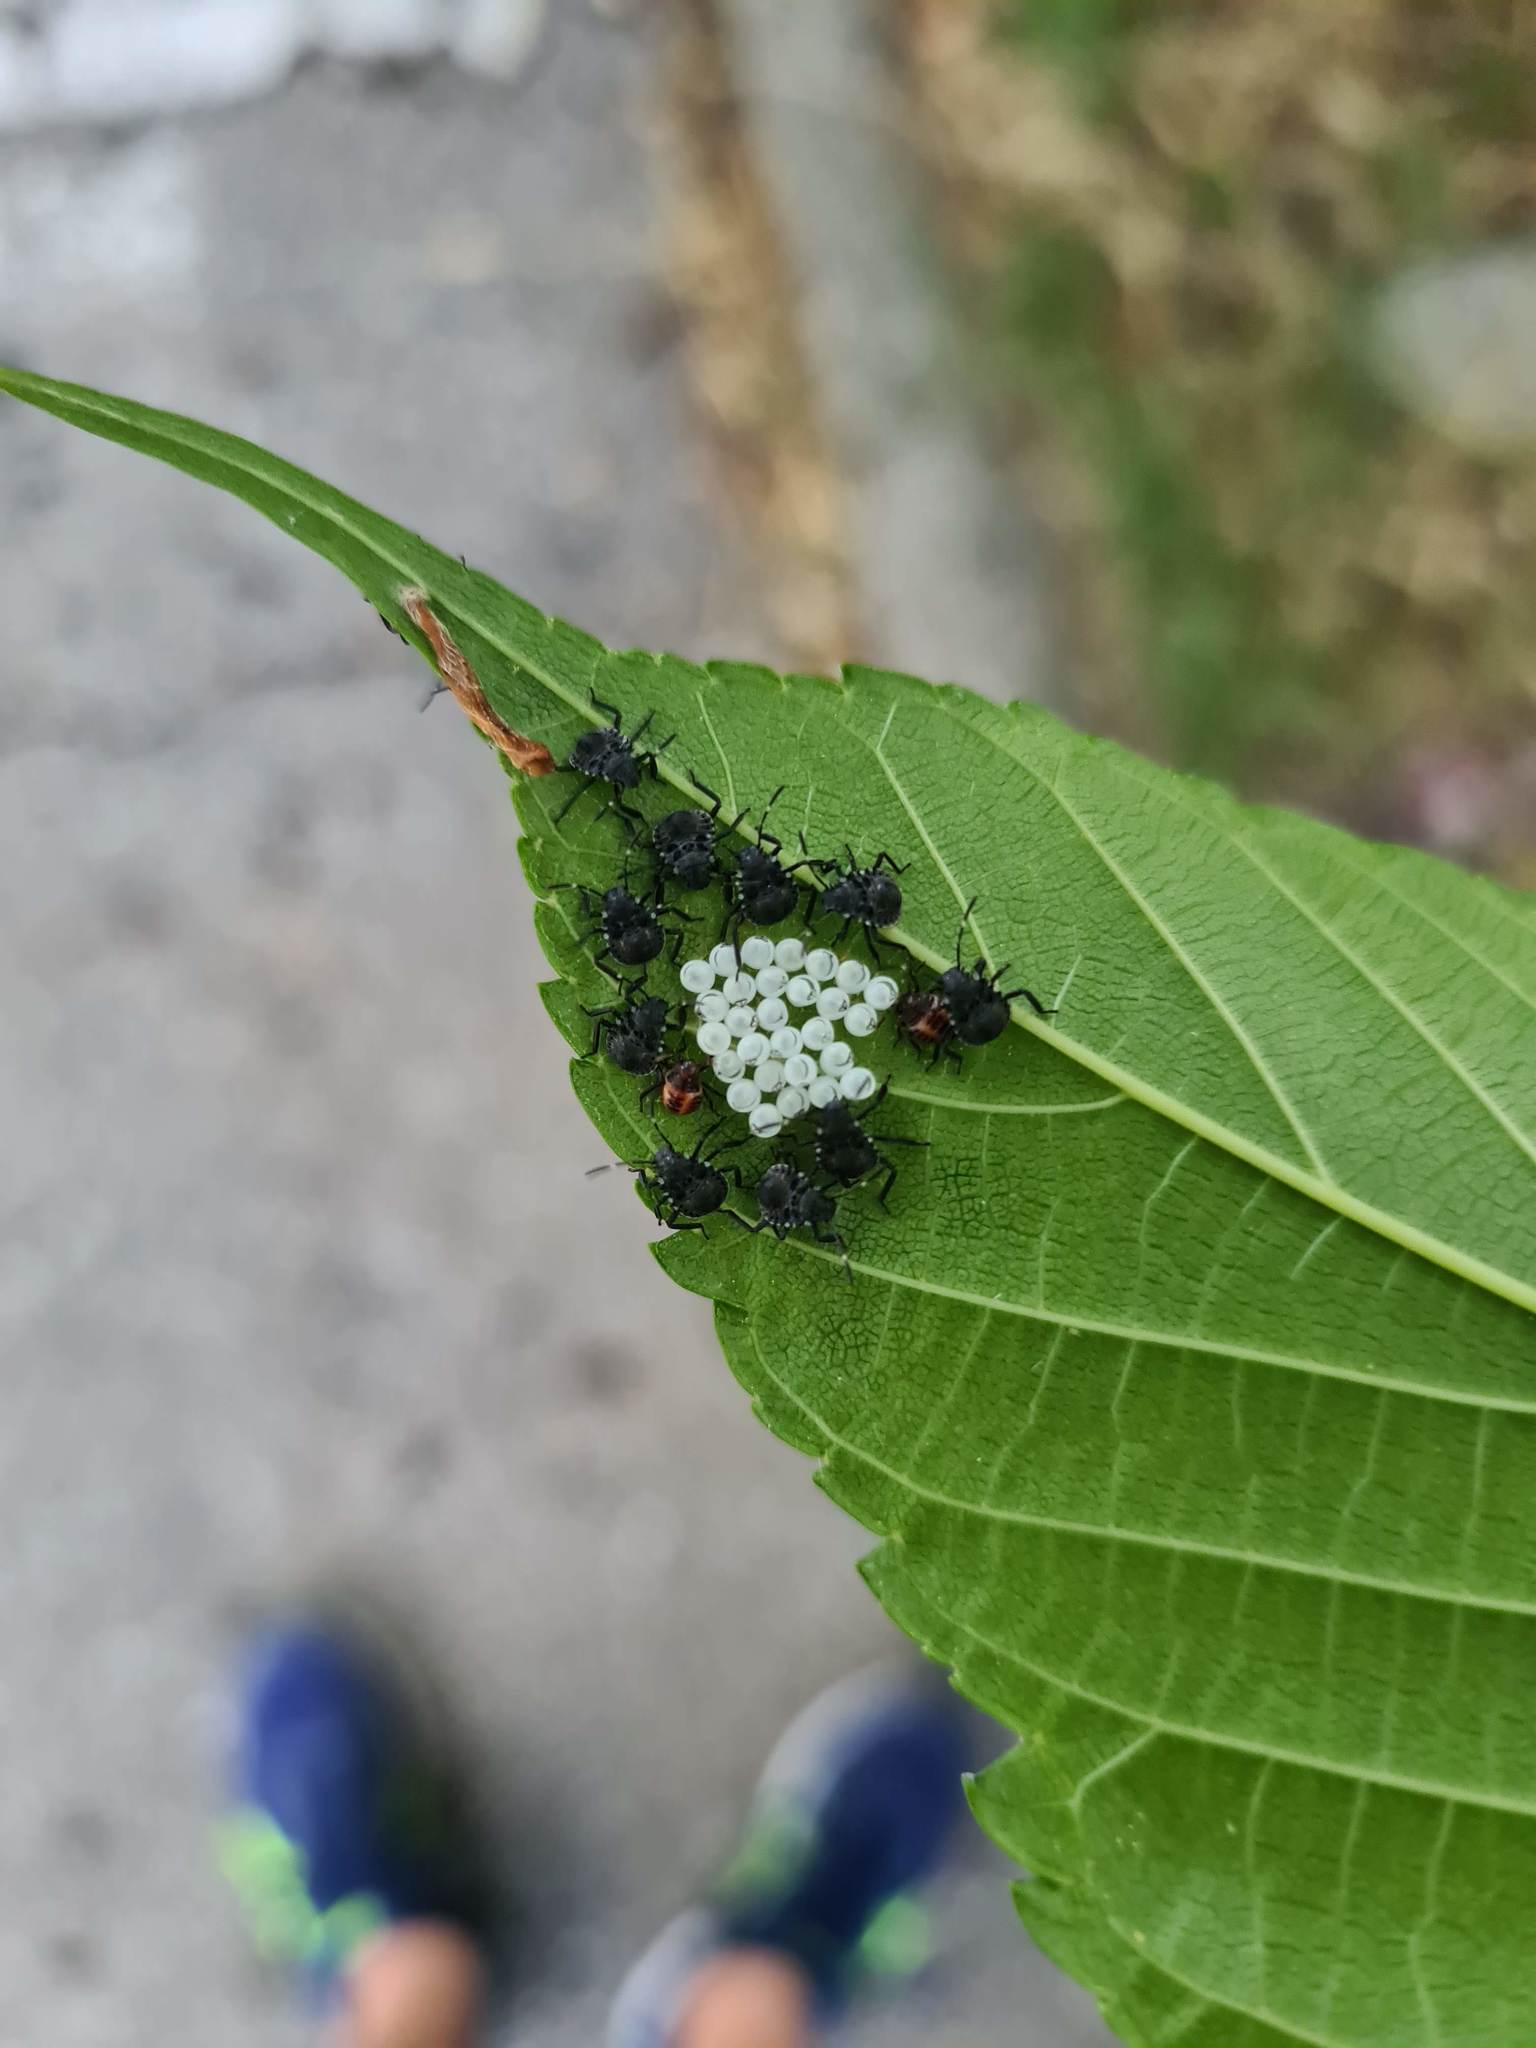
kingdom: Animalia
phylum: Arthropoda
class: Insecta
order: Hemiptera
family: Pentatomidae
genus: Halyomorpha
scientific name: Halyomorpha halys
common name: Brown marmorated stink bug
